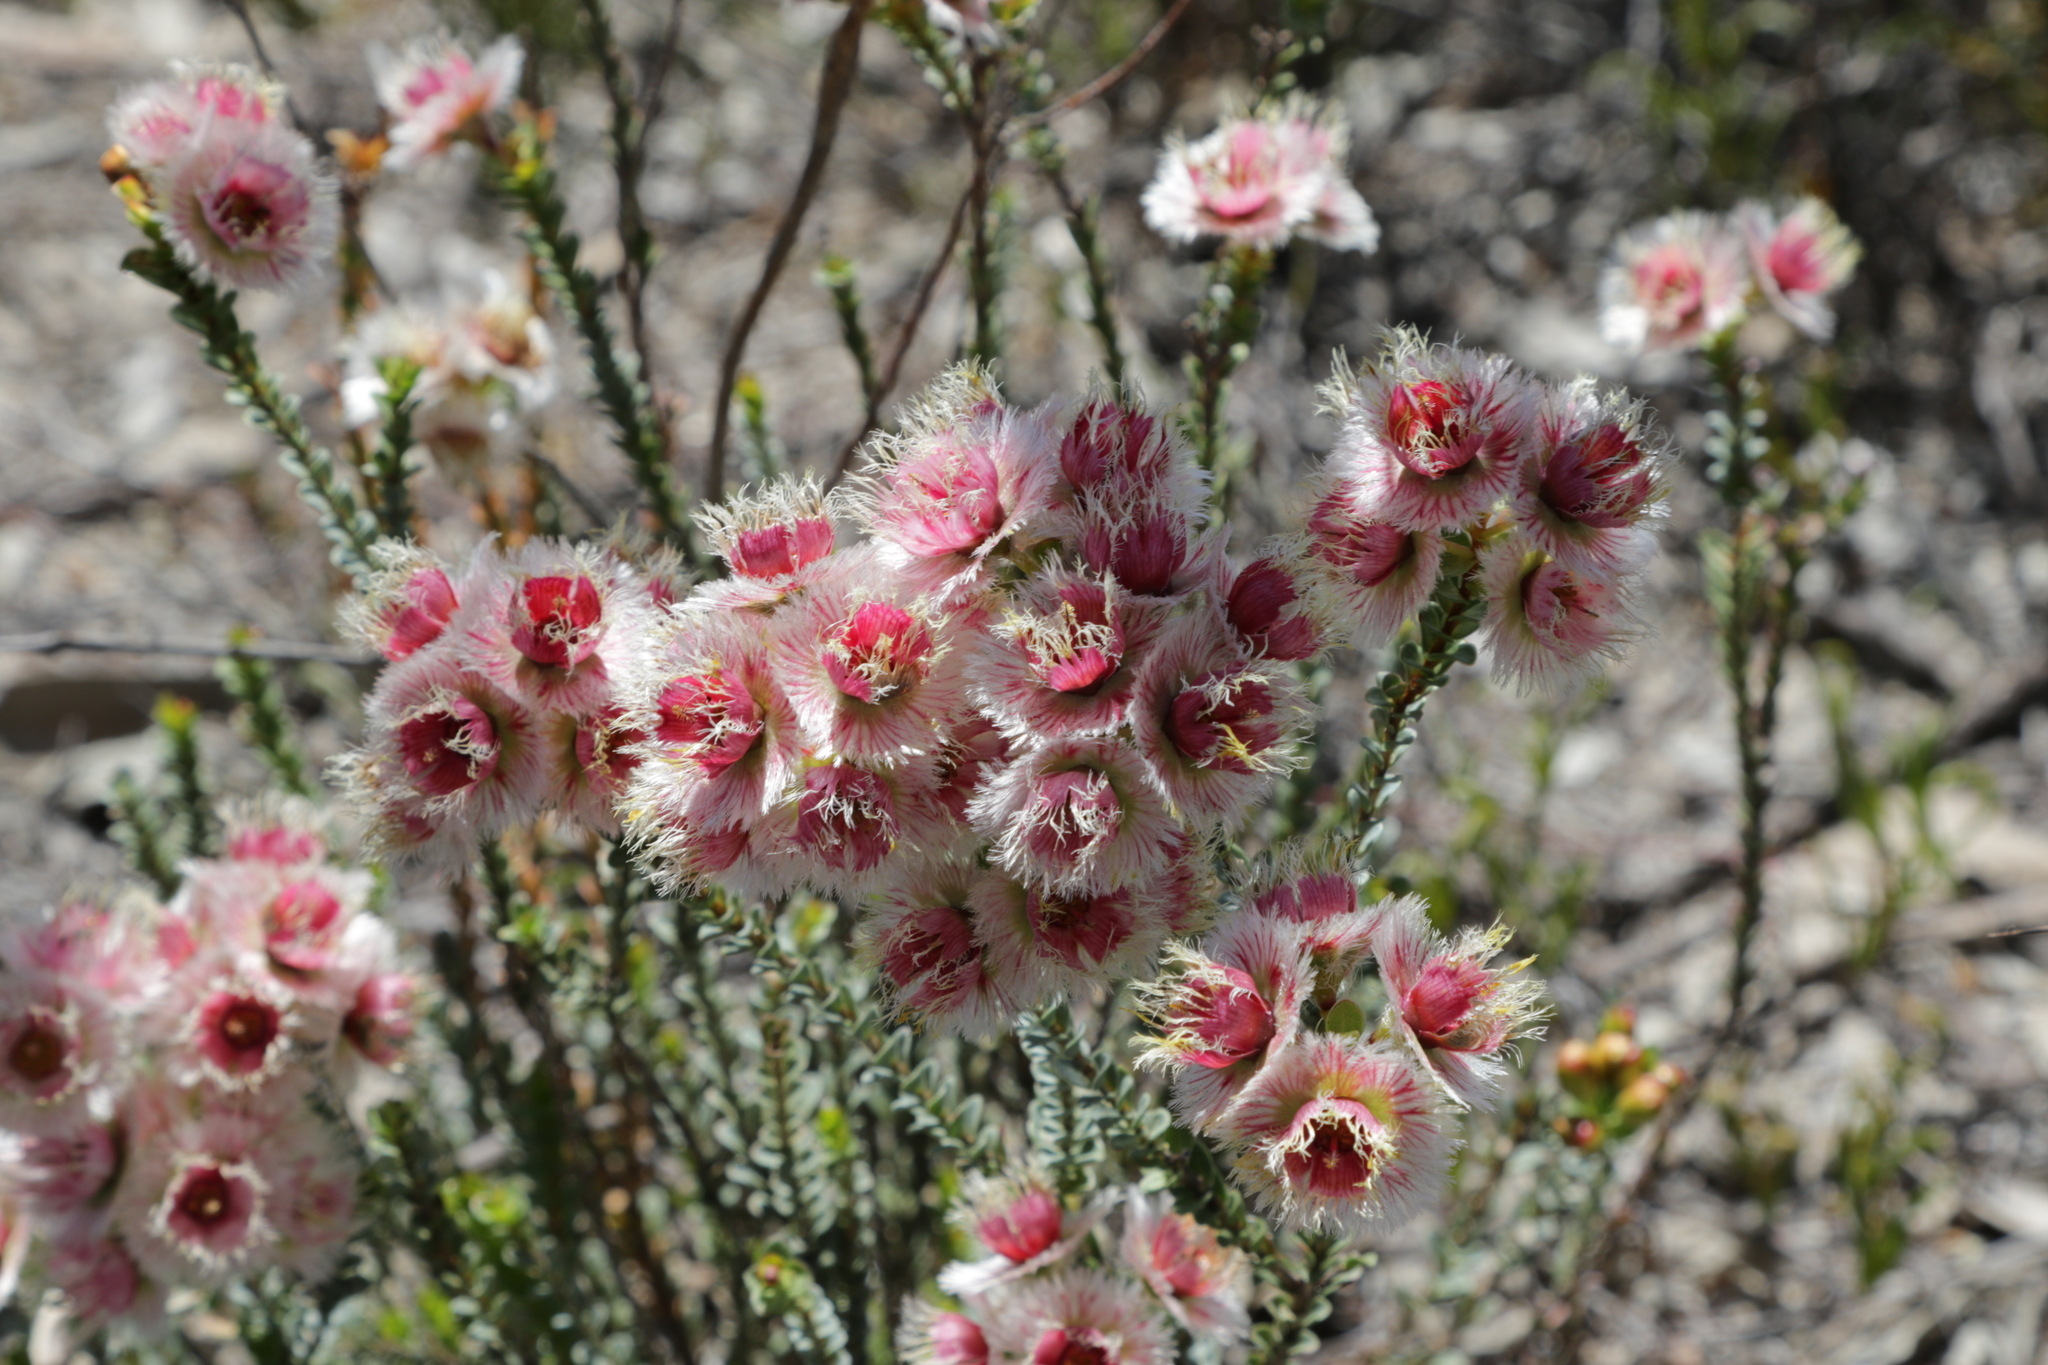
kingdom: Plantae
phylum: Tracheophyta
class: Magnoliopsida
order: Myrtales
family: Myrtaceae
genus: Verticordia
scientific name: Verticordia ovalifolia
